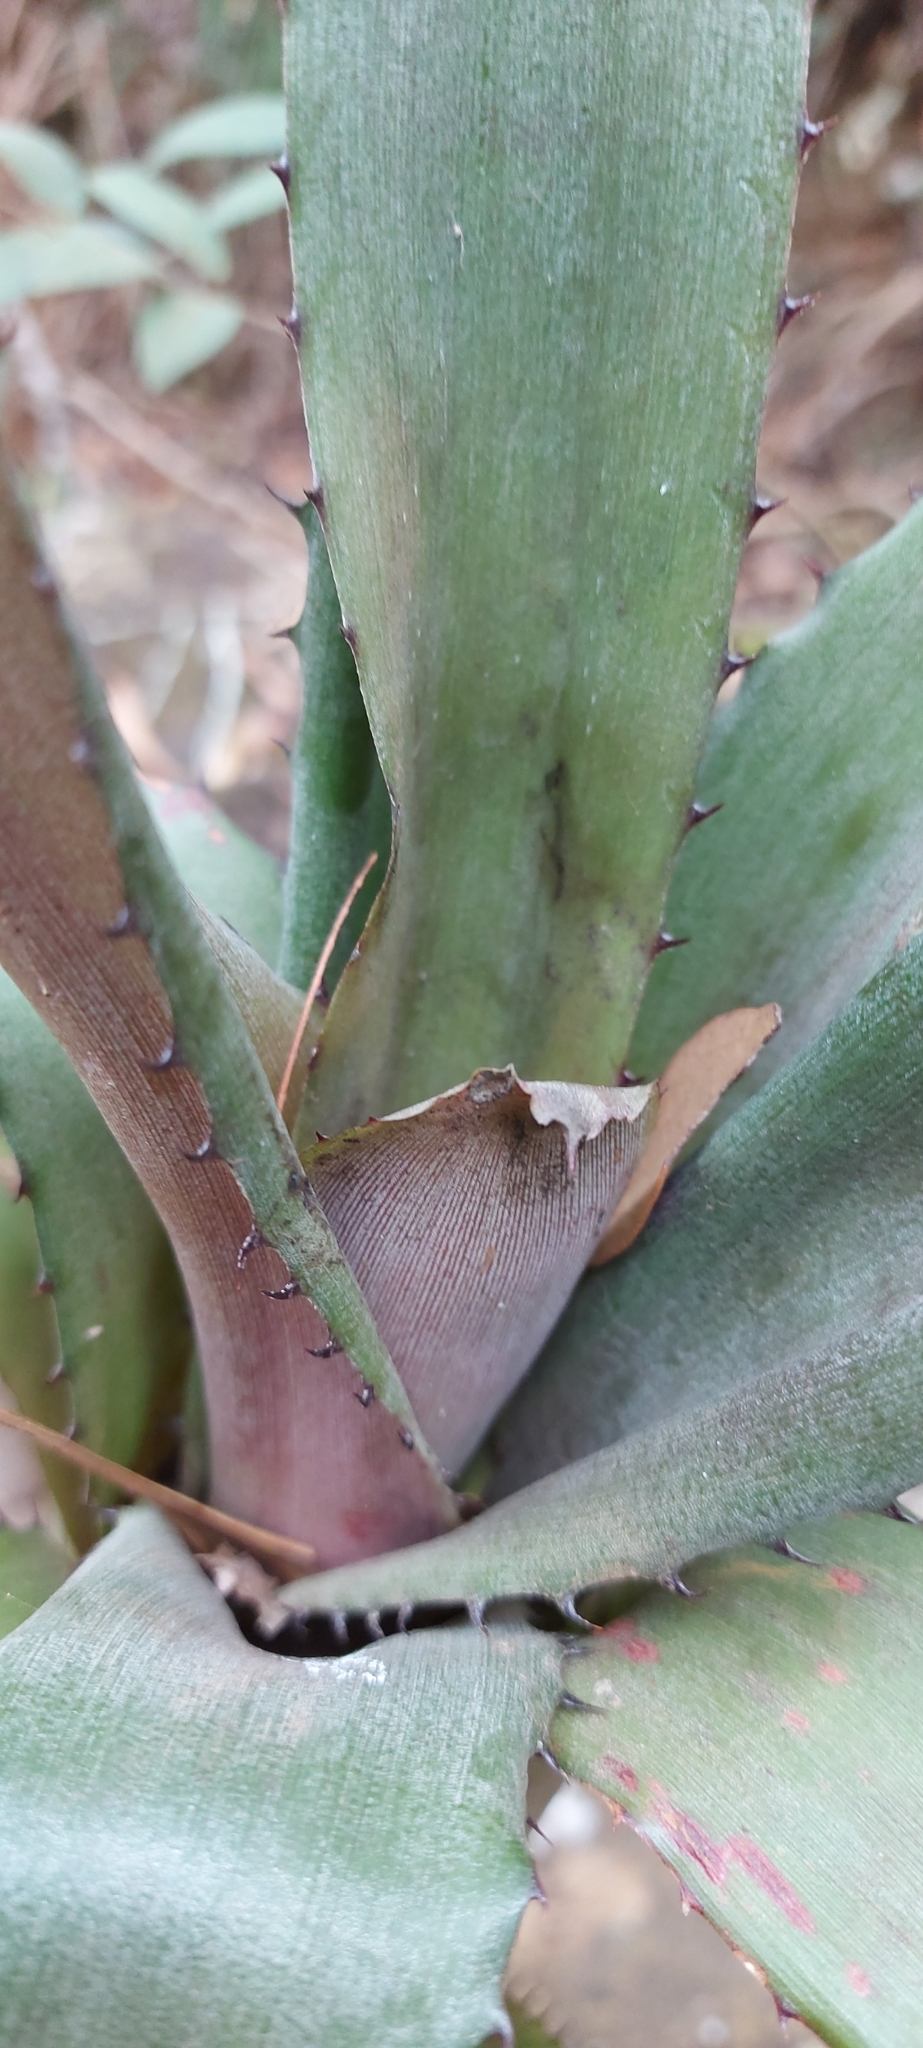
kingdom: Plantae
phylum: Tracheophyta
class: Liliopsida
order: Poales
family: Bromeliaceae
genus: Aechmea
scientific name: Aechmea bromeliifolia
